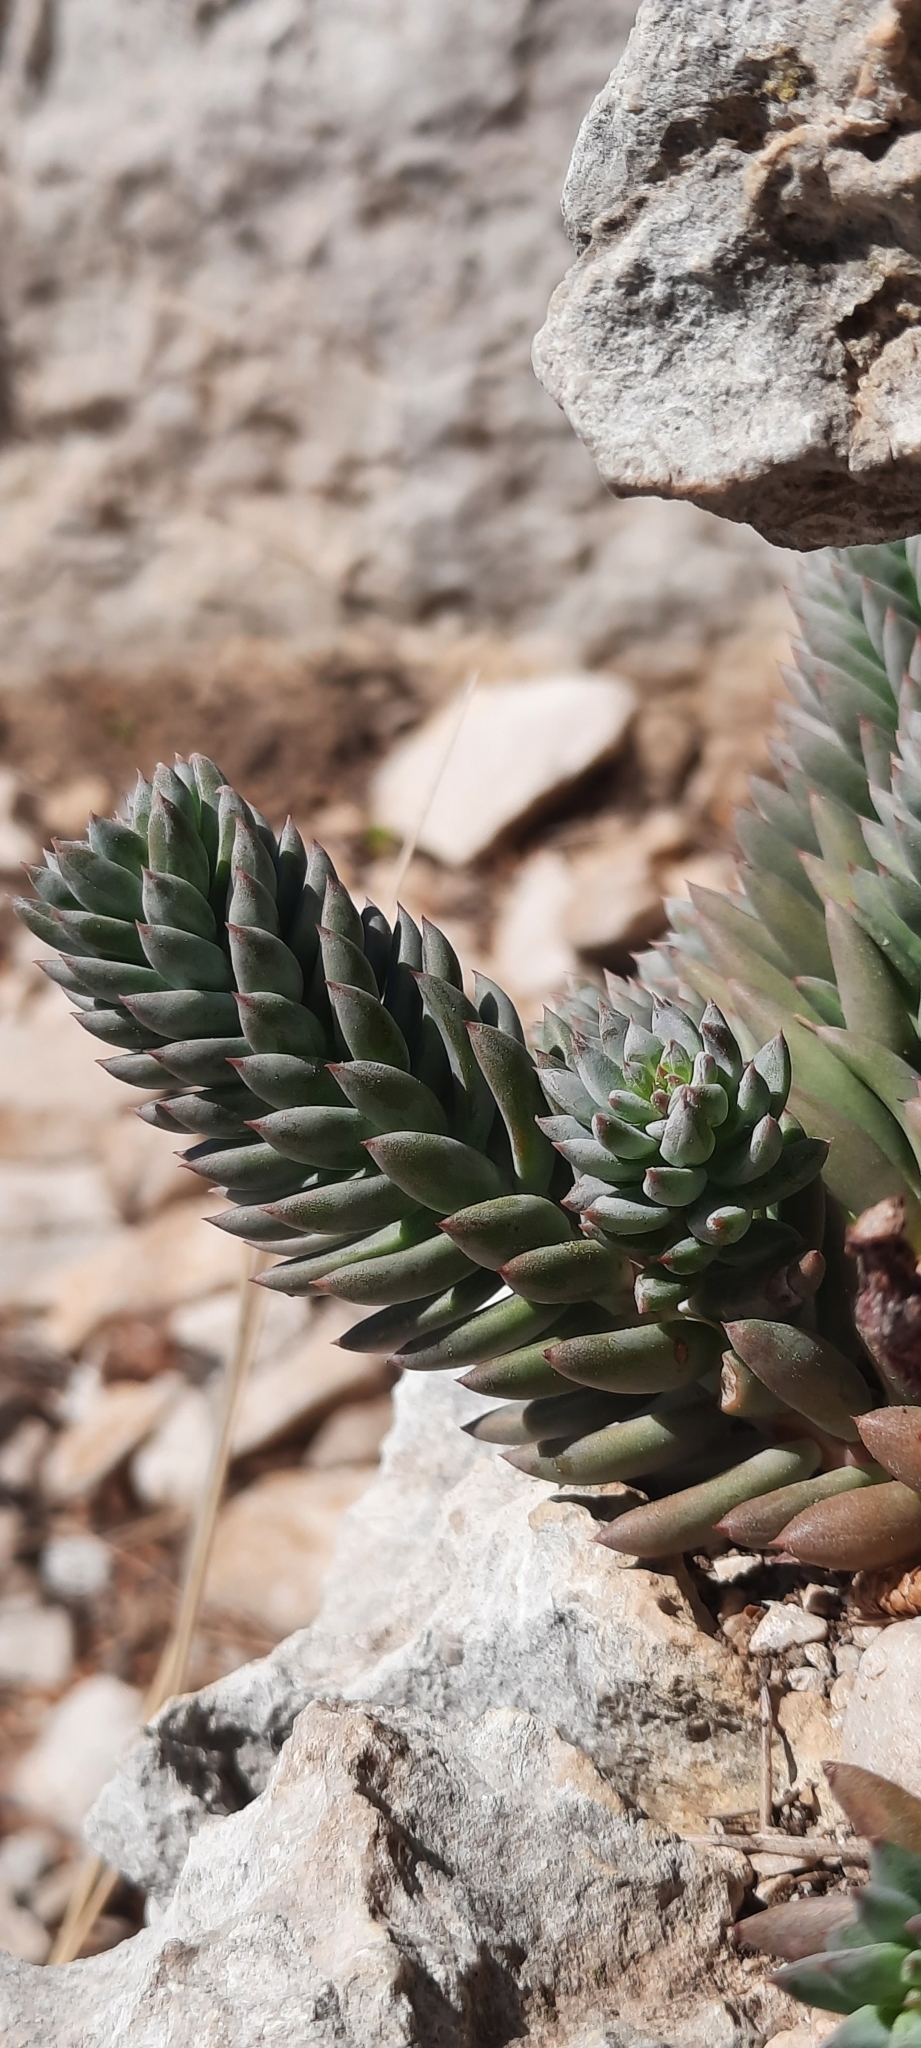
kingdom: Plantae
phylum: Tracheophyta
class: Magnoliopsida
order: Saxifragales
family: Crassulaceae
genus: Petrosedum
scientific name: Petrosedum sediforme
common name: Pale stonecrop
